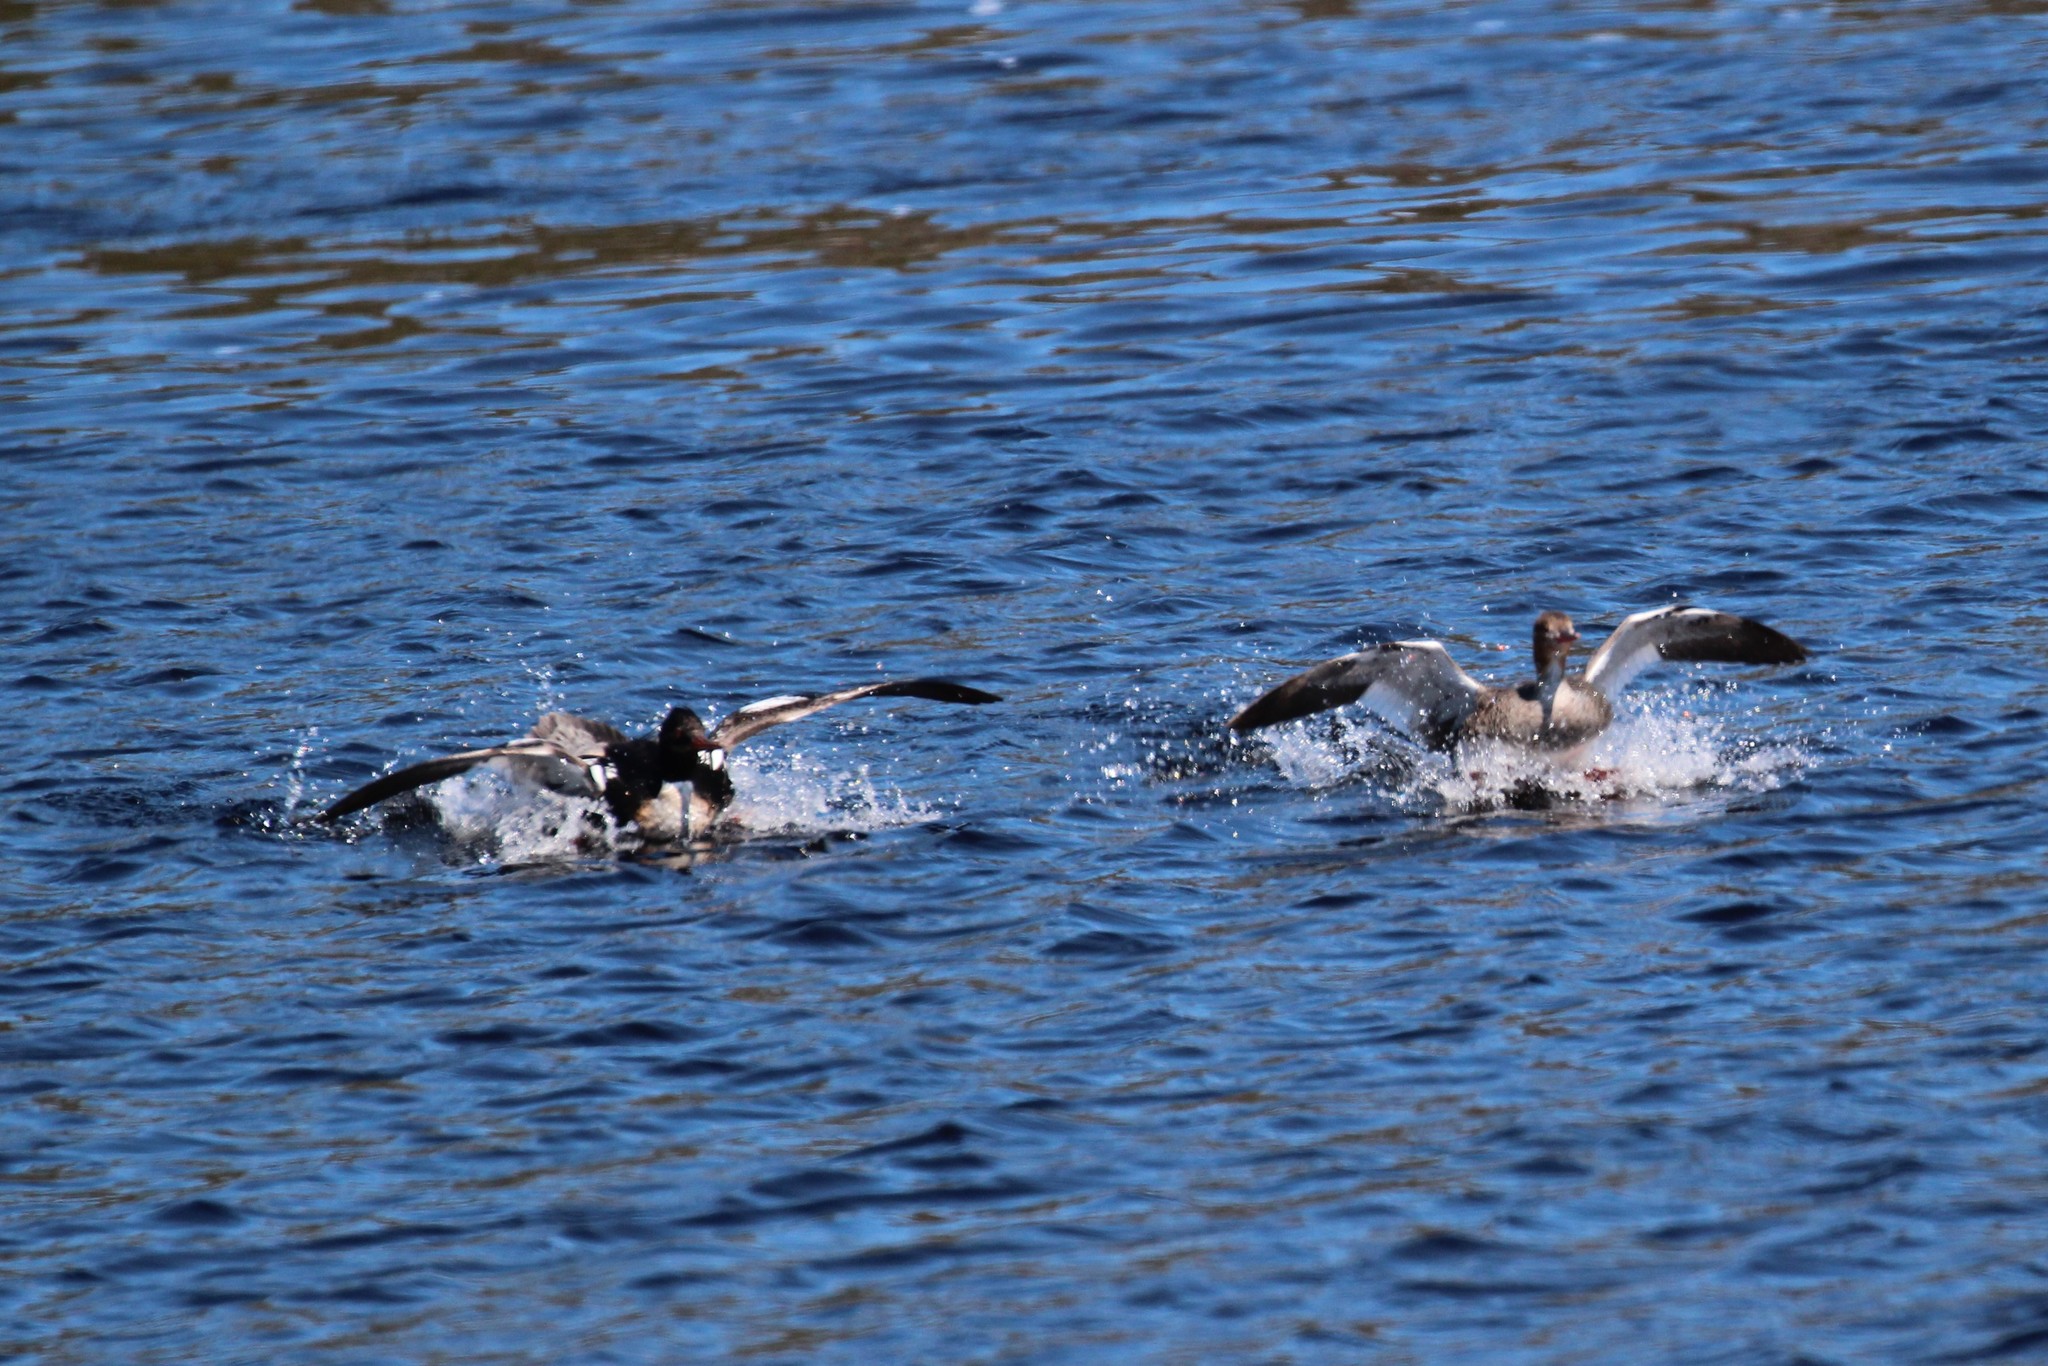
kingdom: Animalia
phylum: Chordata
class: Aves
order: Anseriformes
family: Anatidae
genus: Mergus
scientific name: Mergus serrator
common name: Red-breasted merganser
